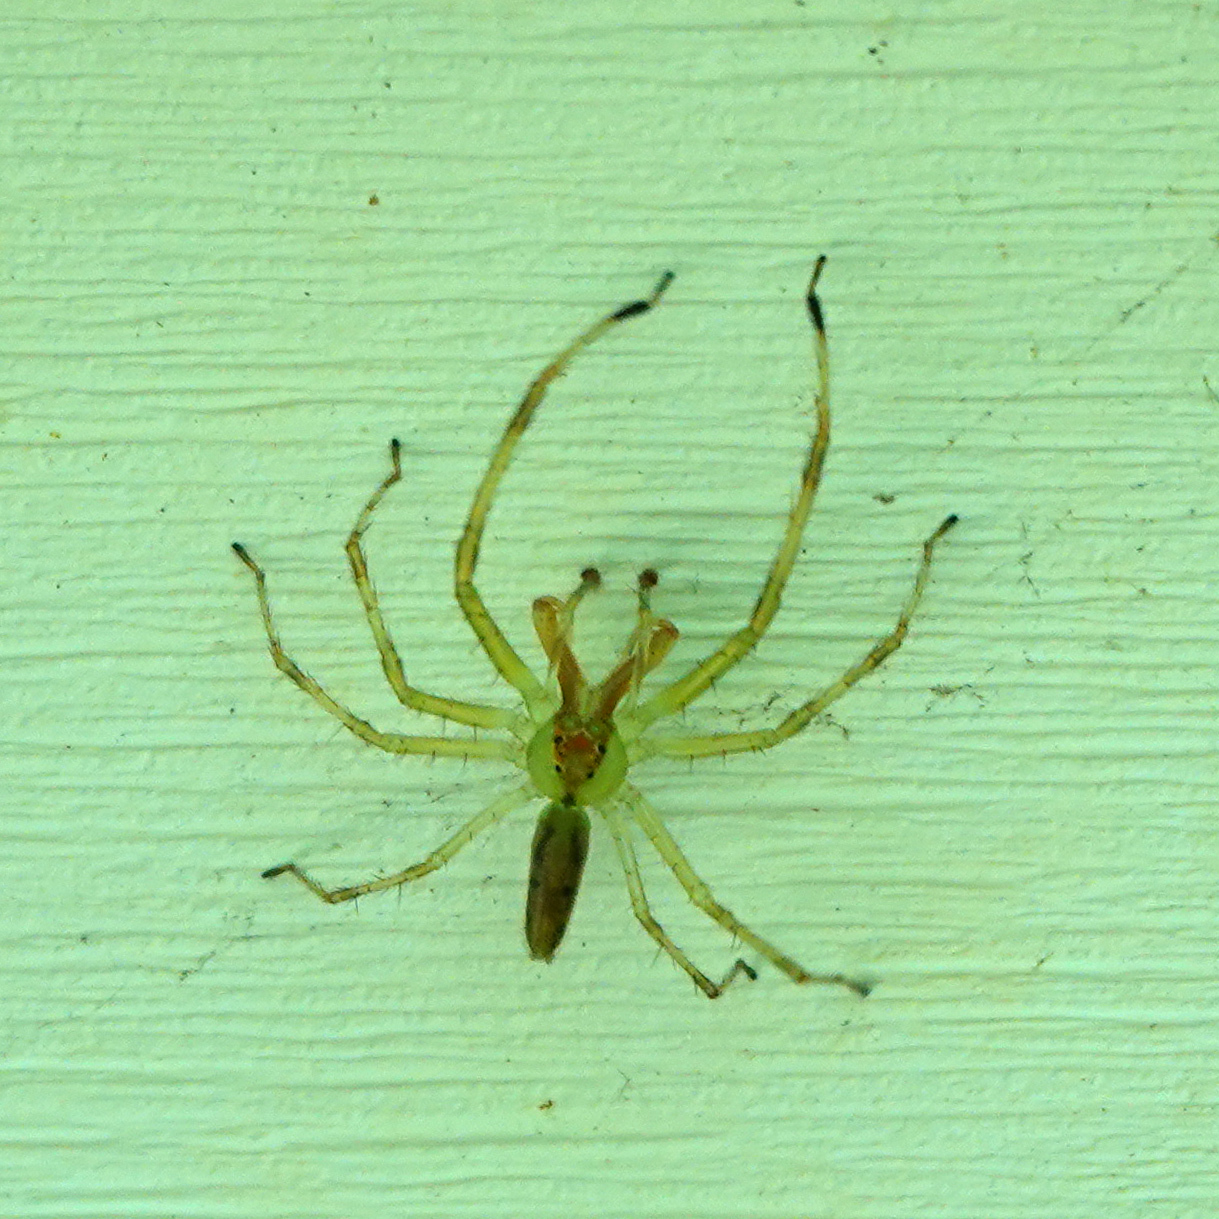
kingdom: Animalia
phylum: Arthropoda
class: Arachnida
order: Araneae
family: Salticidae
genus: Lyssomanes
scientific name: Lyssomanes viridis
